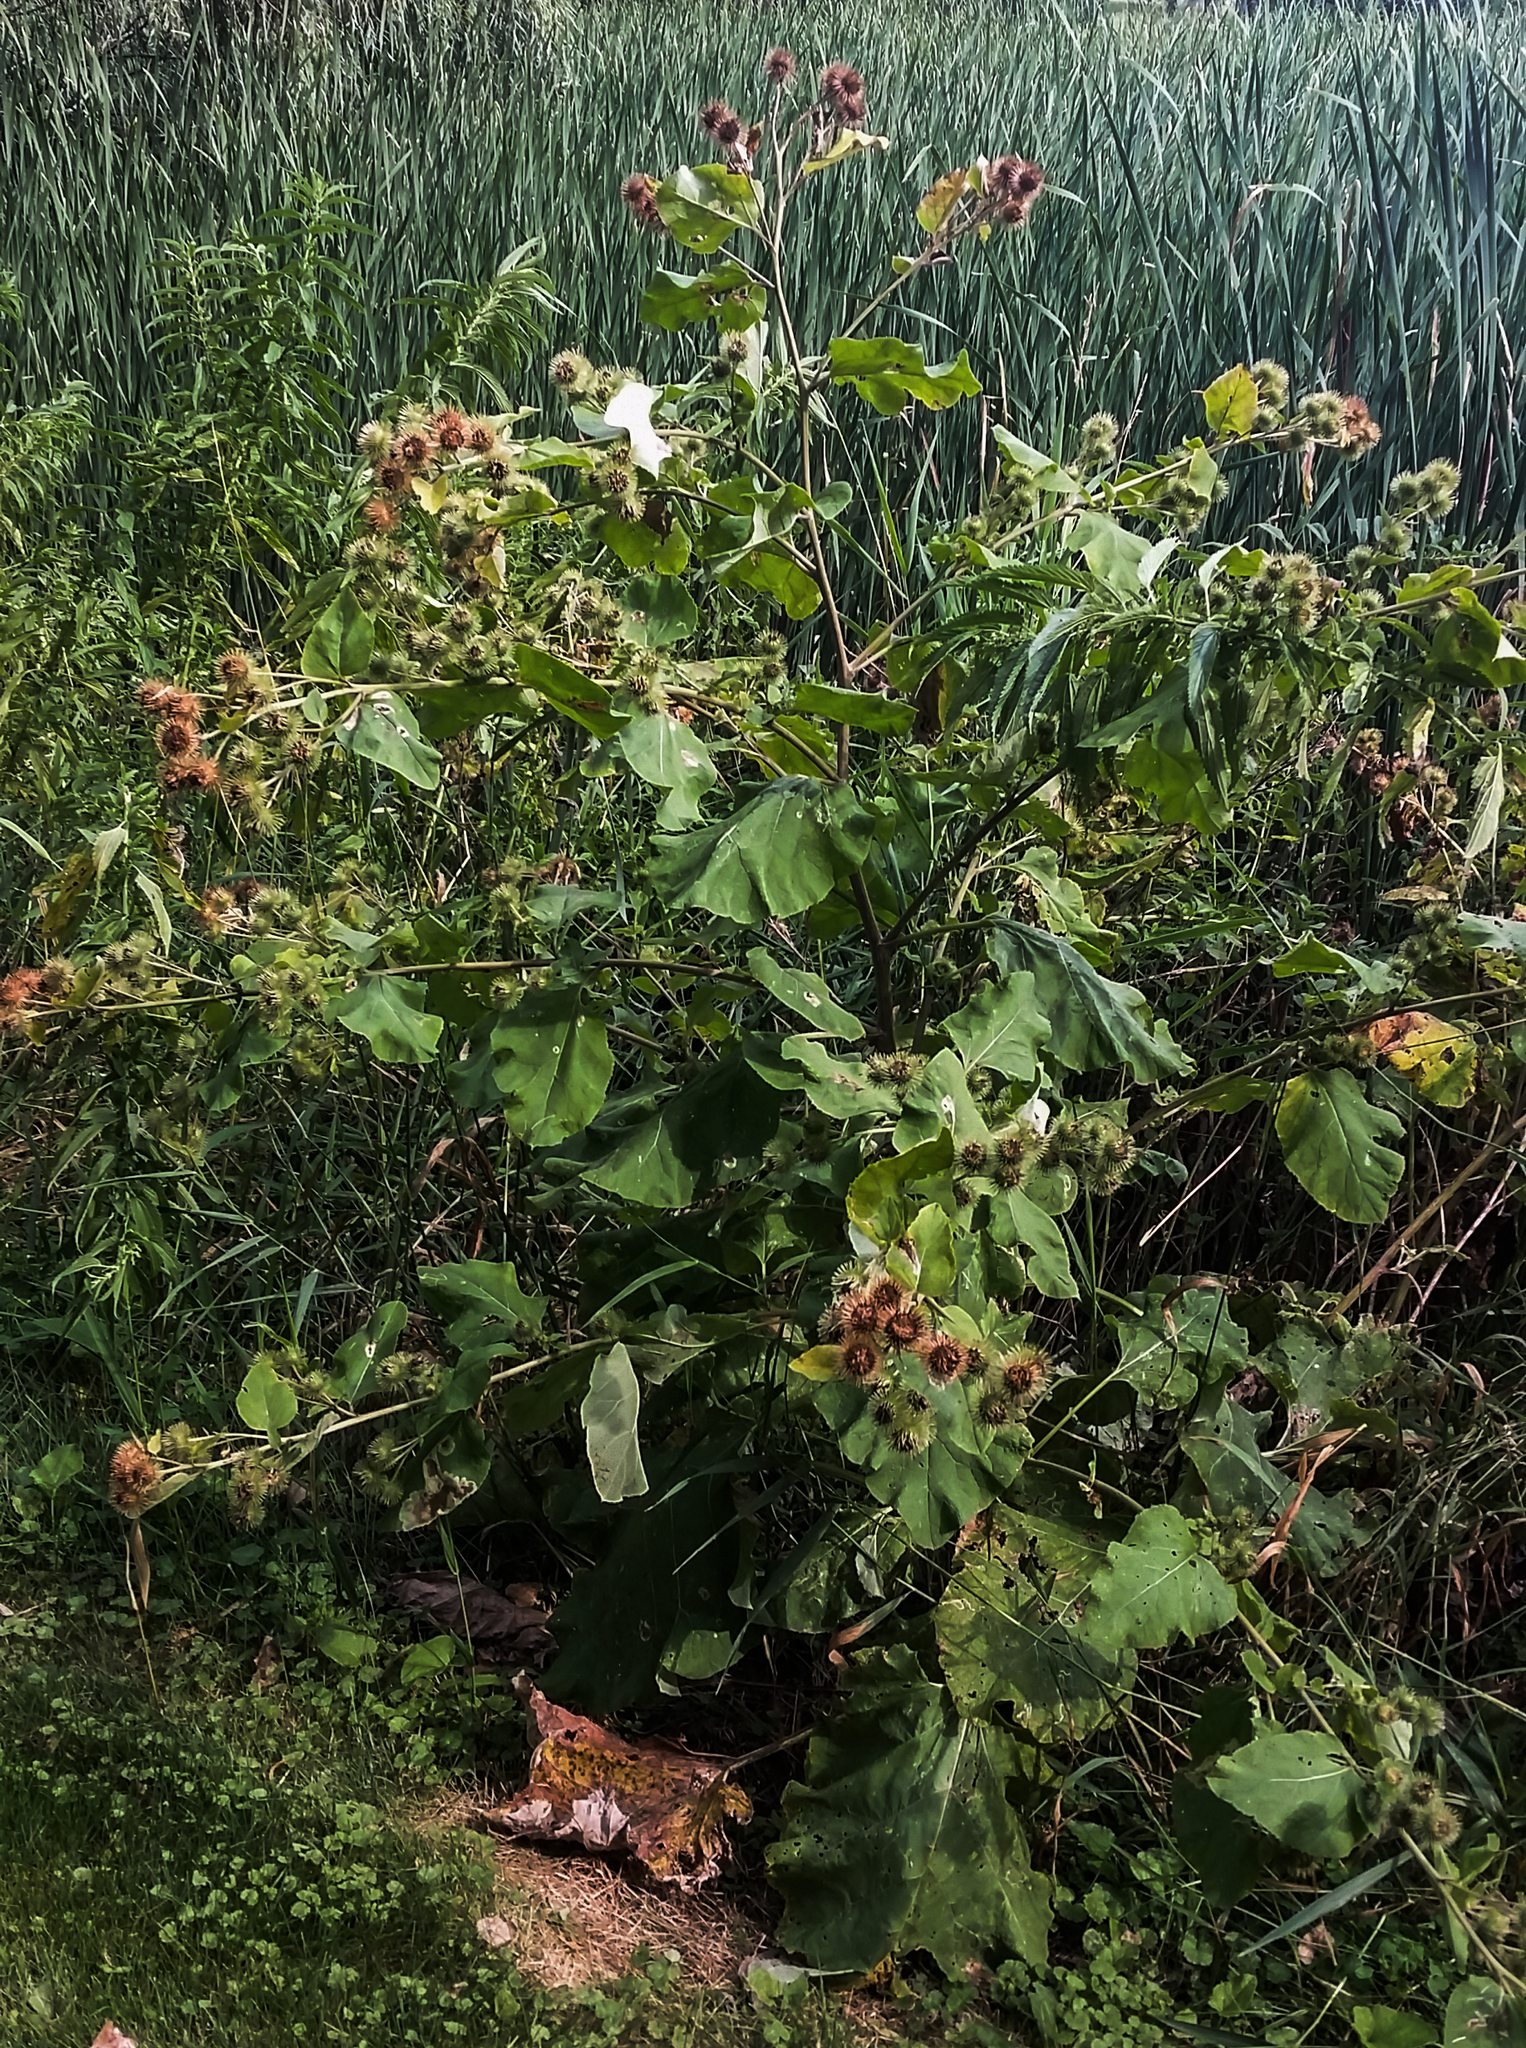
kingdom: Plantae
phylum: Tracheophyta
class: Magnoliopsida
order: Asterales
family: Asteraceae
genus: Arctium
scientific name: Arctium lappa
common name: Greater burdock
